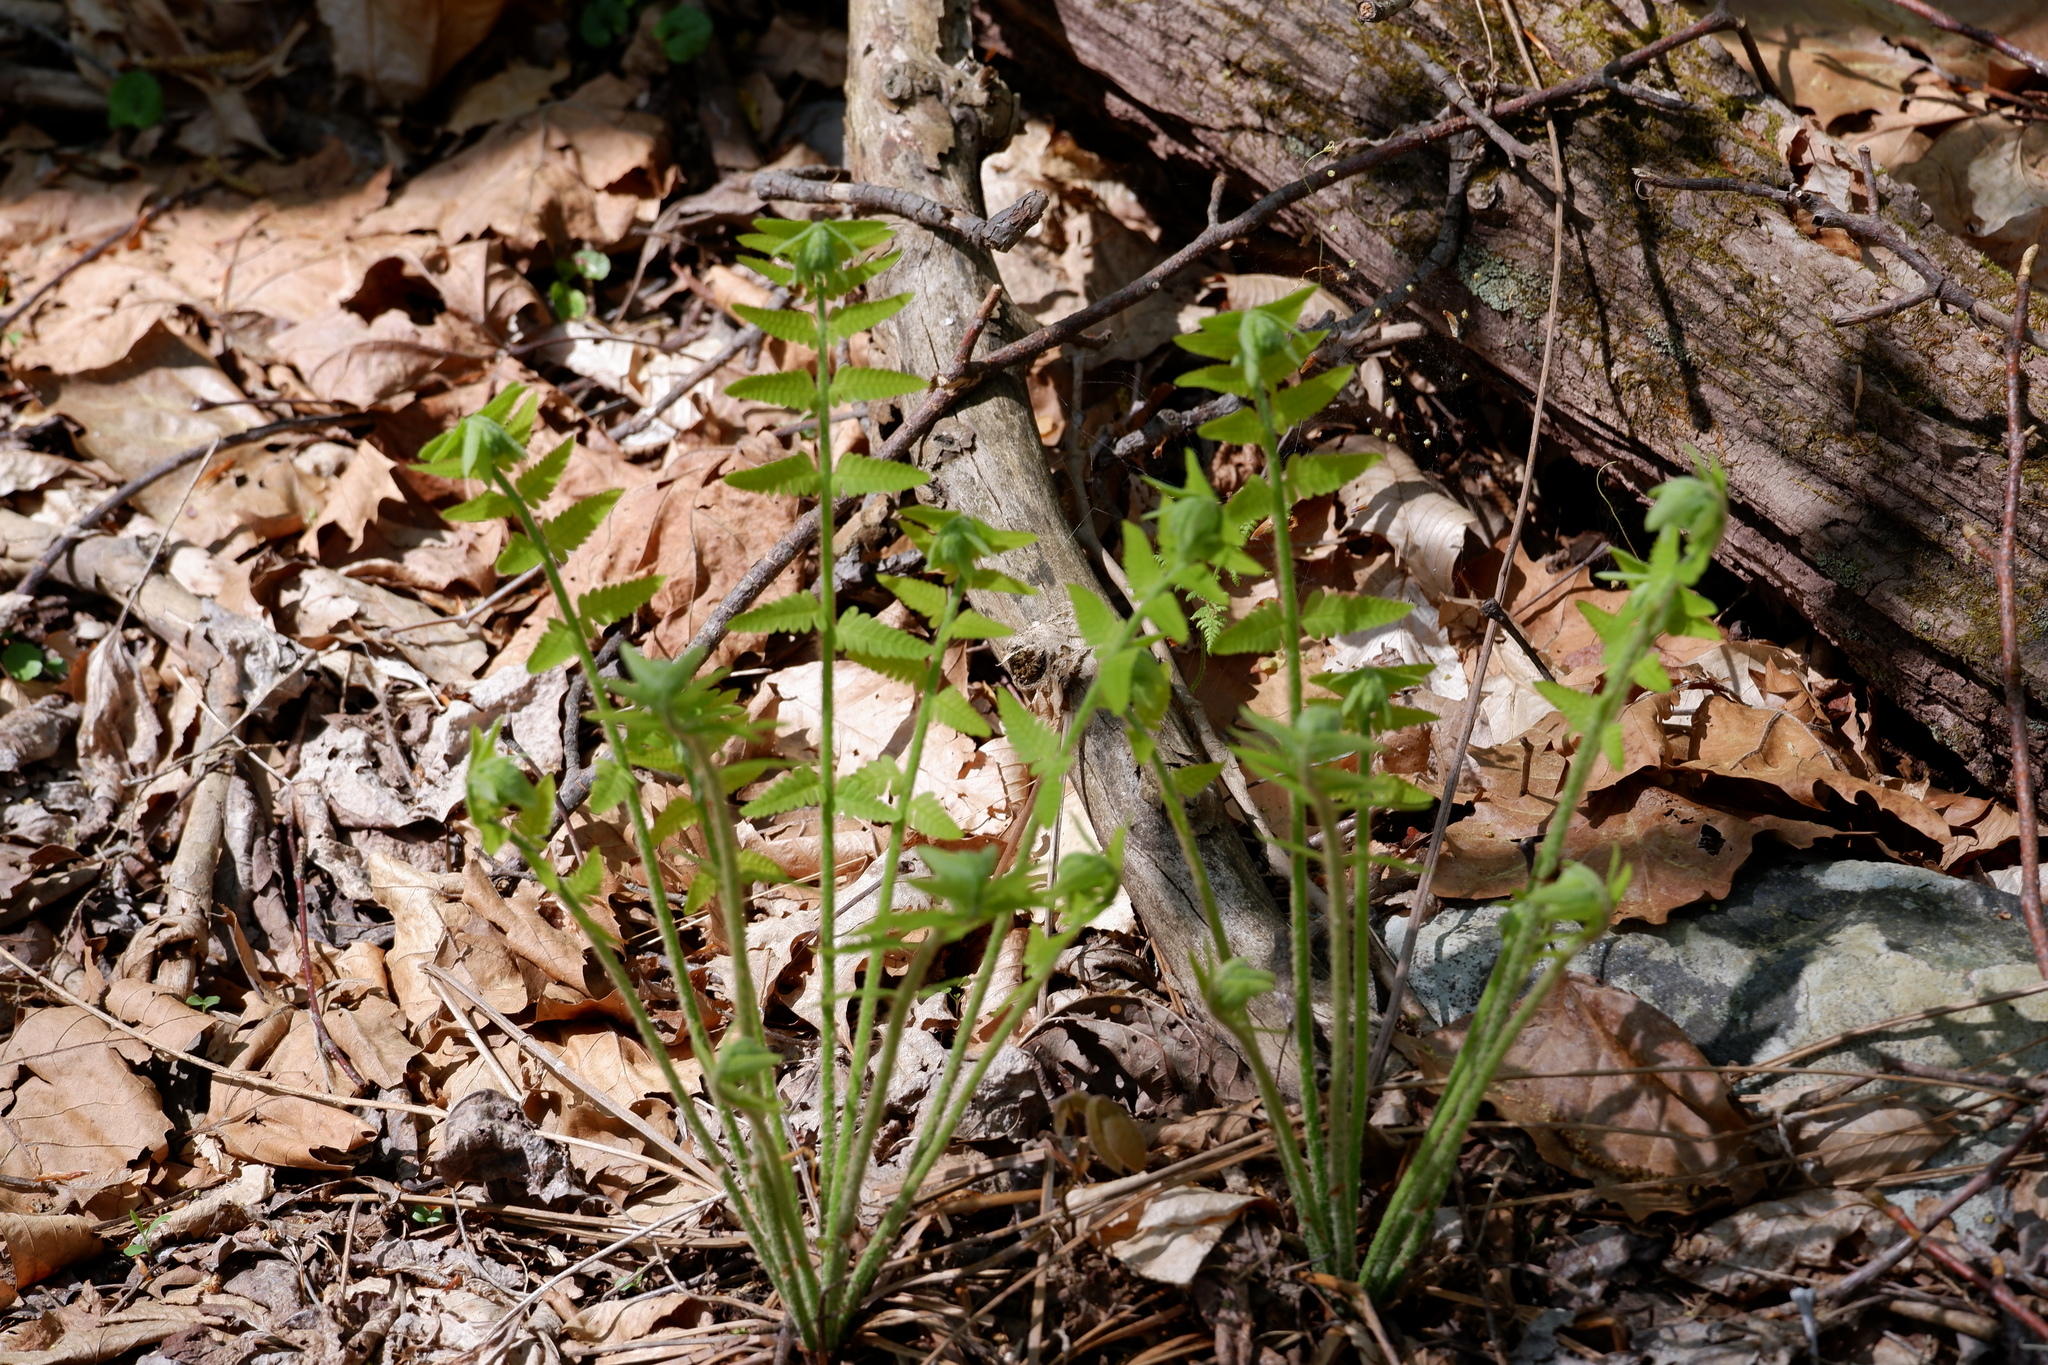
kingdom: Plantae
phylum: Tracheophyta
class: Polypodiopsida
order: Osmundales
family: Osmundaceae
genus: Claytosmunda
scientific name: Claytosmunda claytoniana
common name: Clayton's fern
